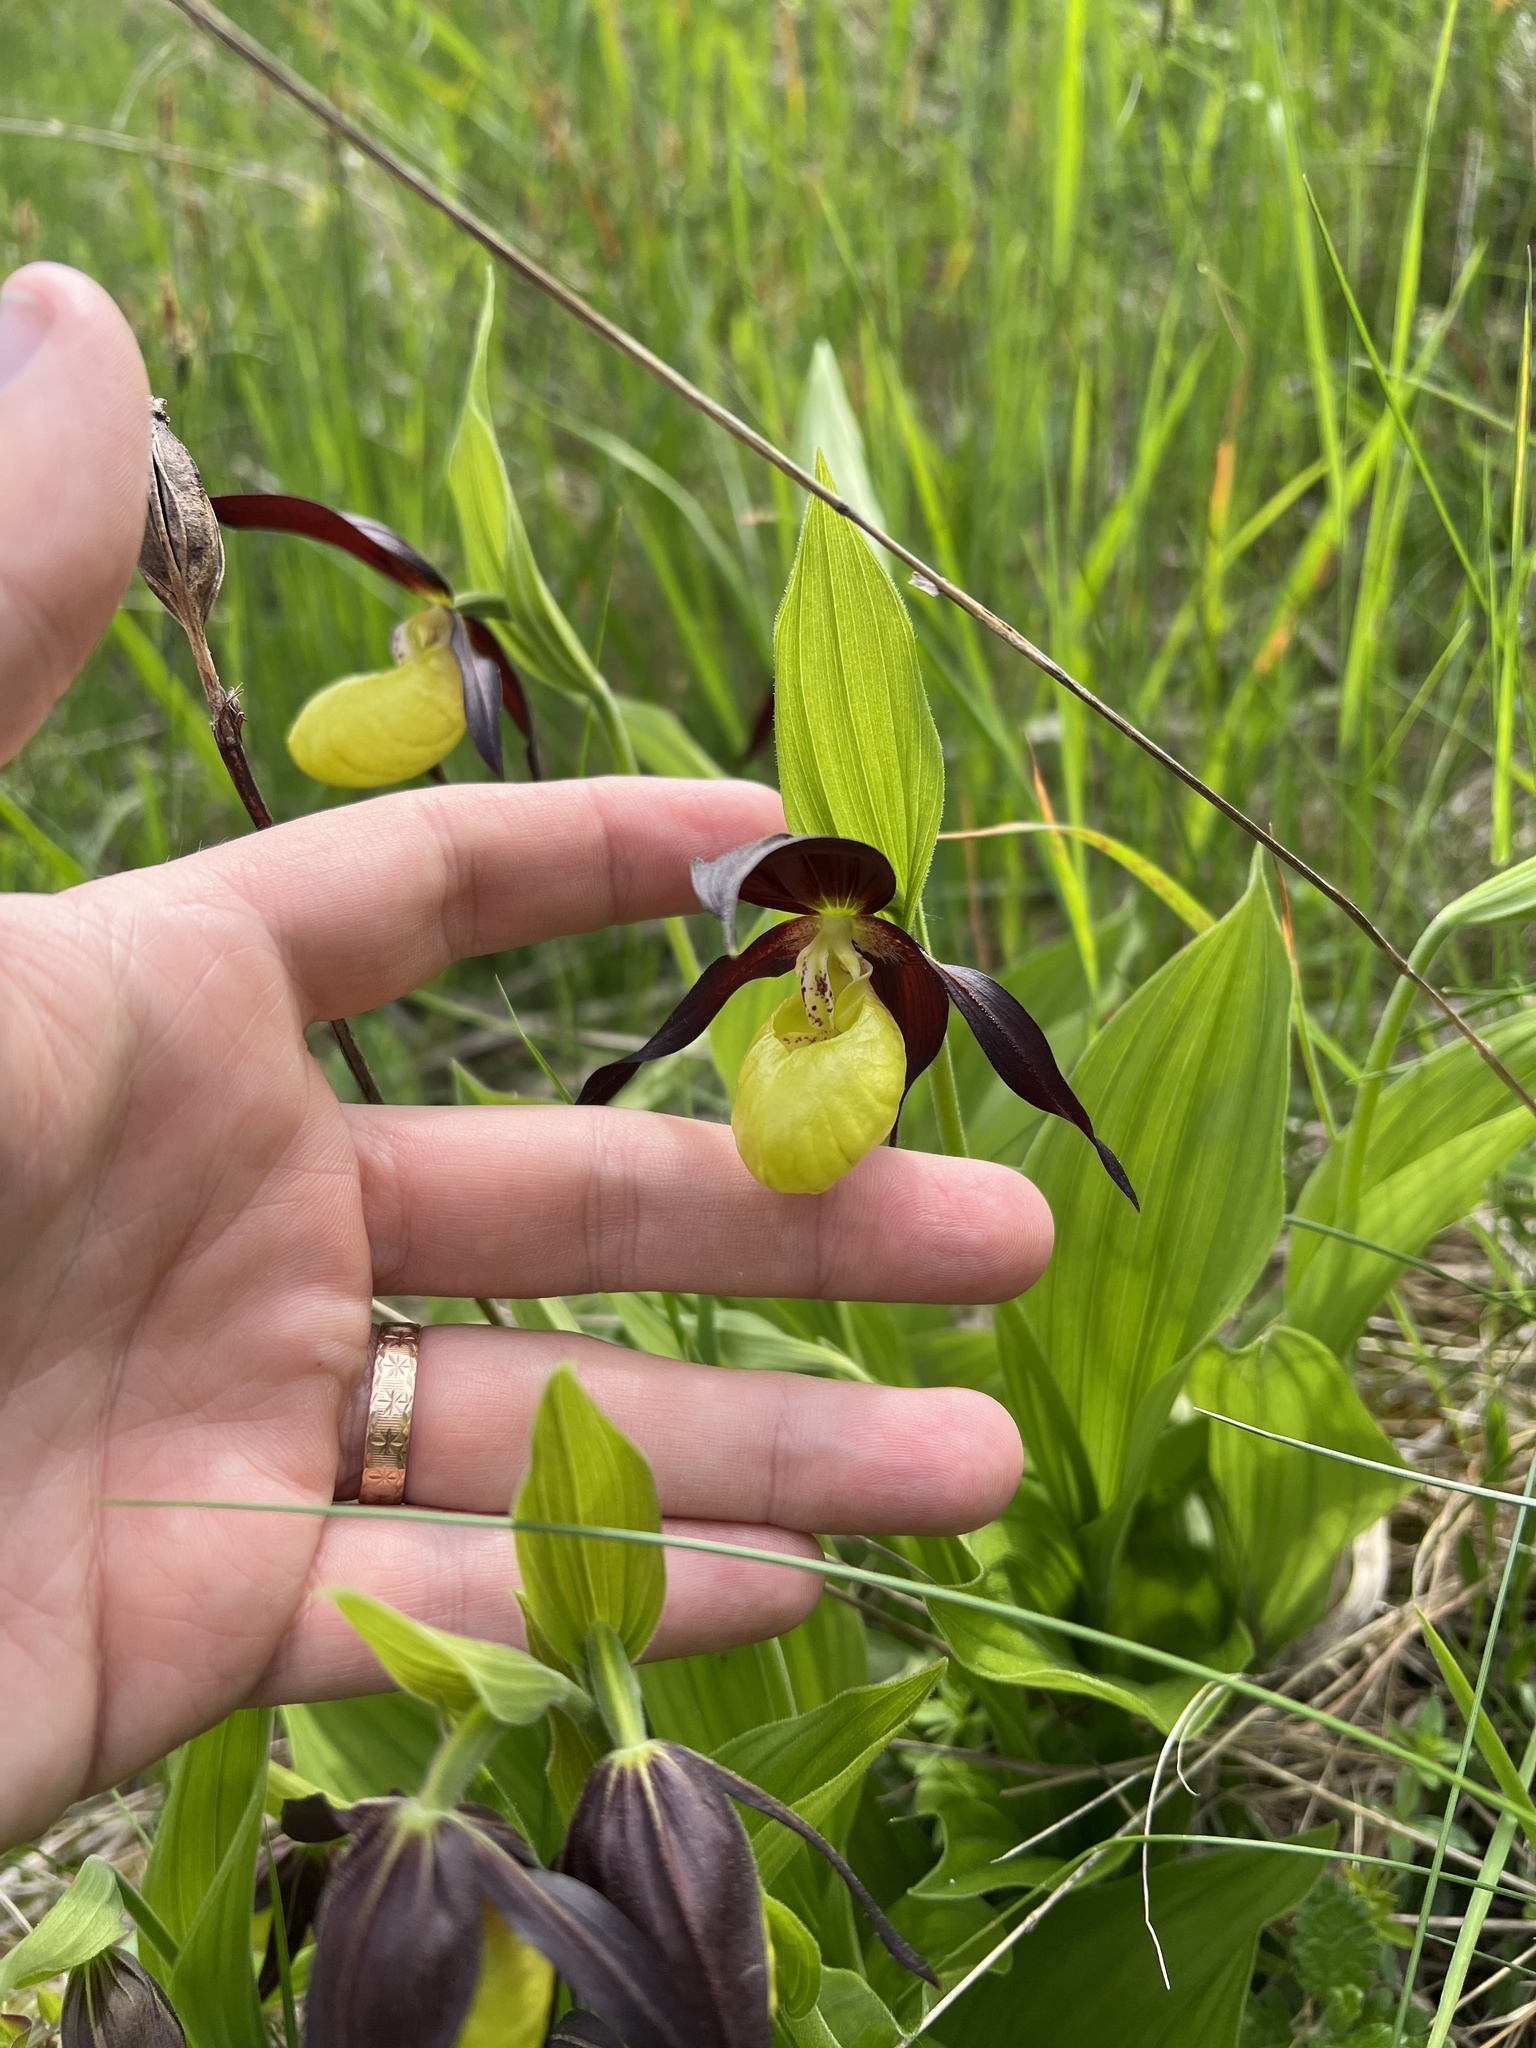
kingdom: Plantae
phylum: Tracheophyta
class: Liliopsida
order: Asparagales
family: Orchidaceae
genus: Cypripedium
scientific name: Cypripedium calceolus
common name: Lady's-slipper
